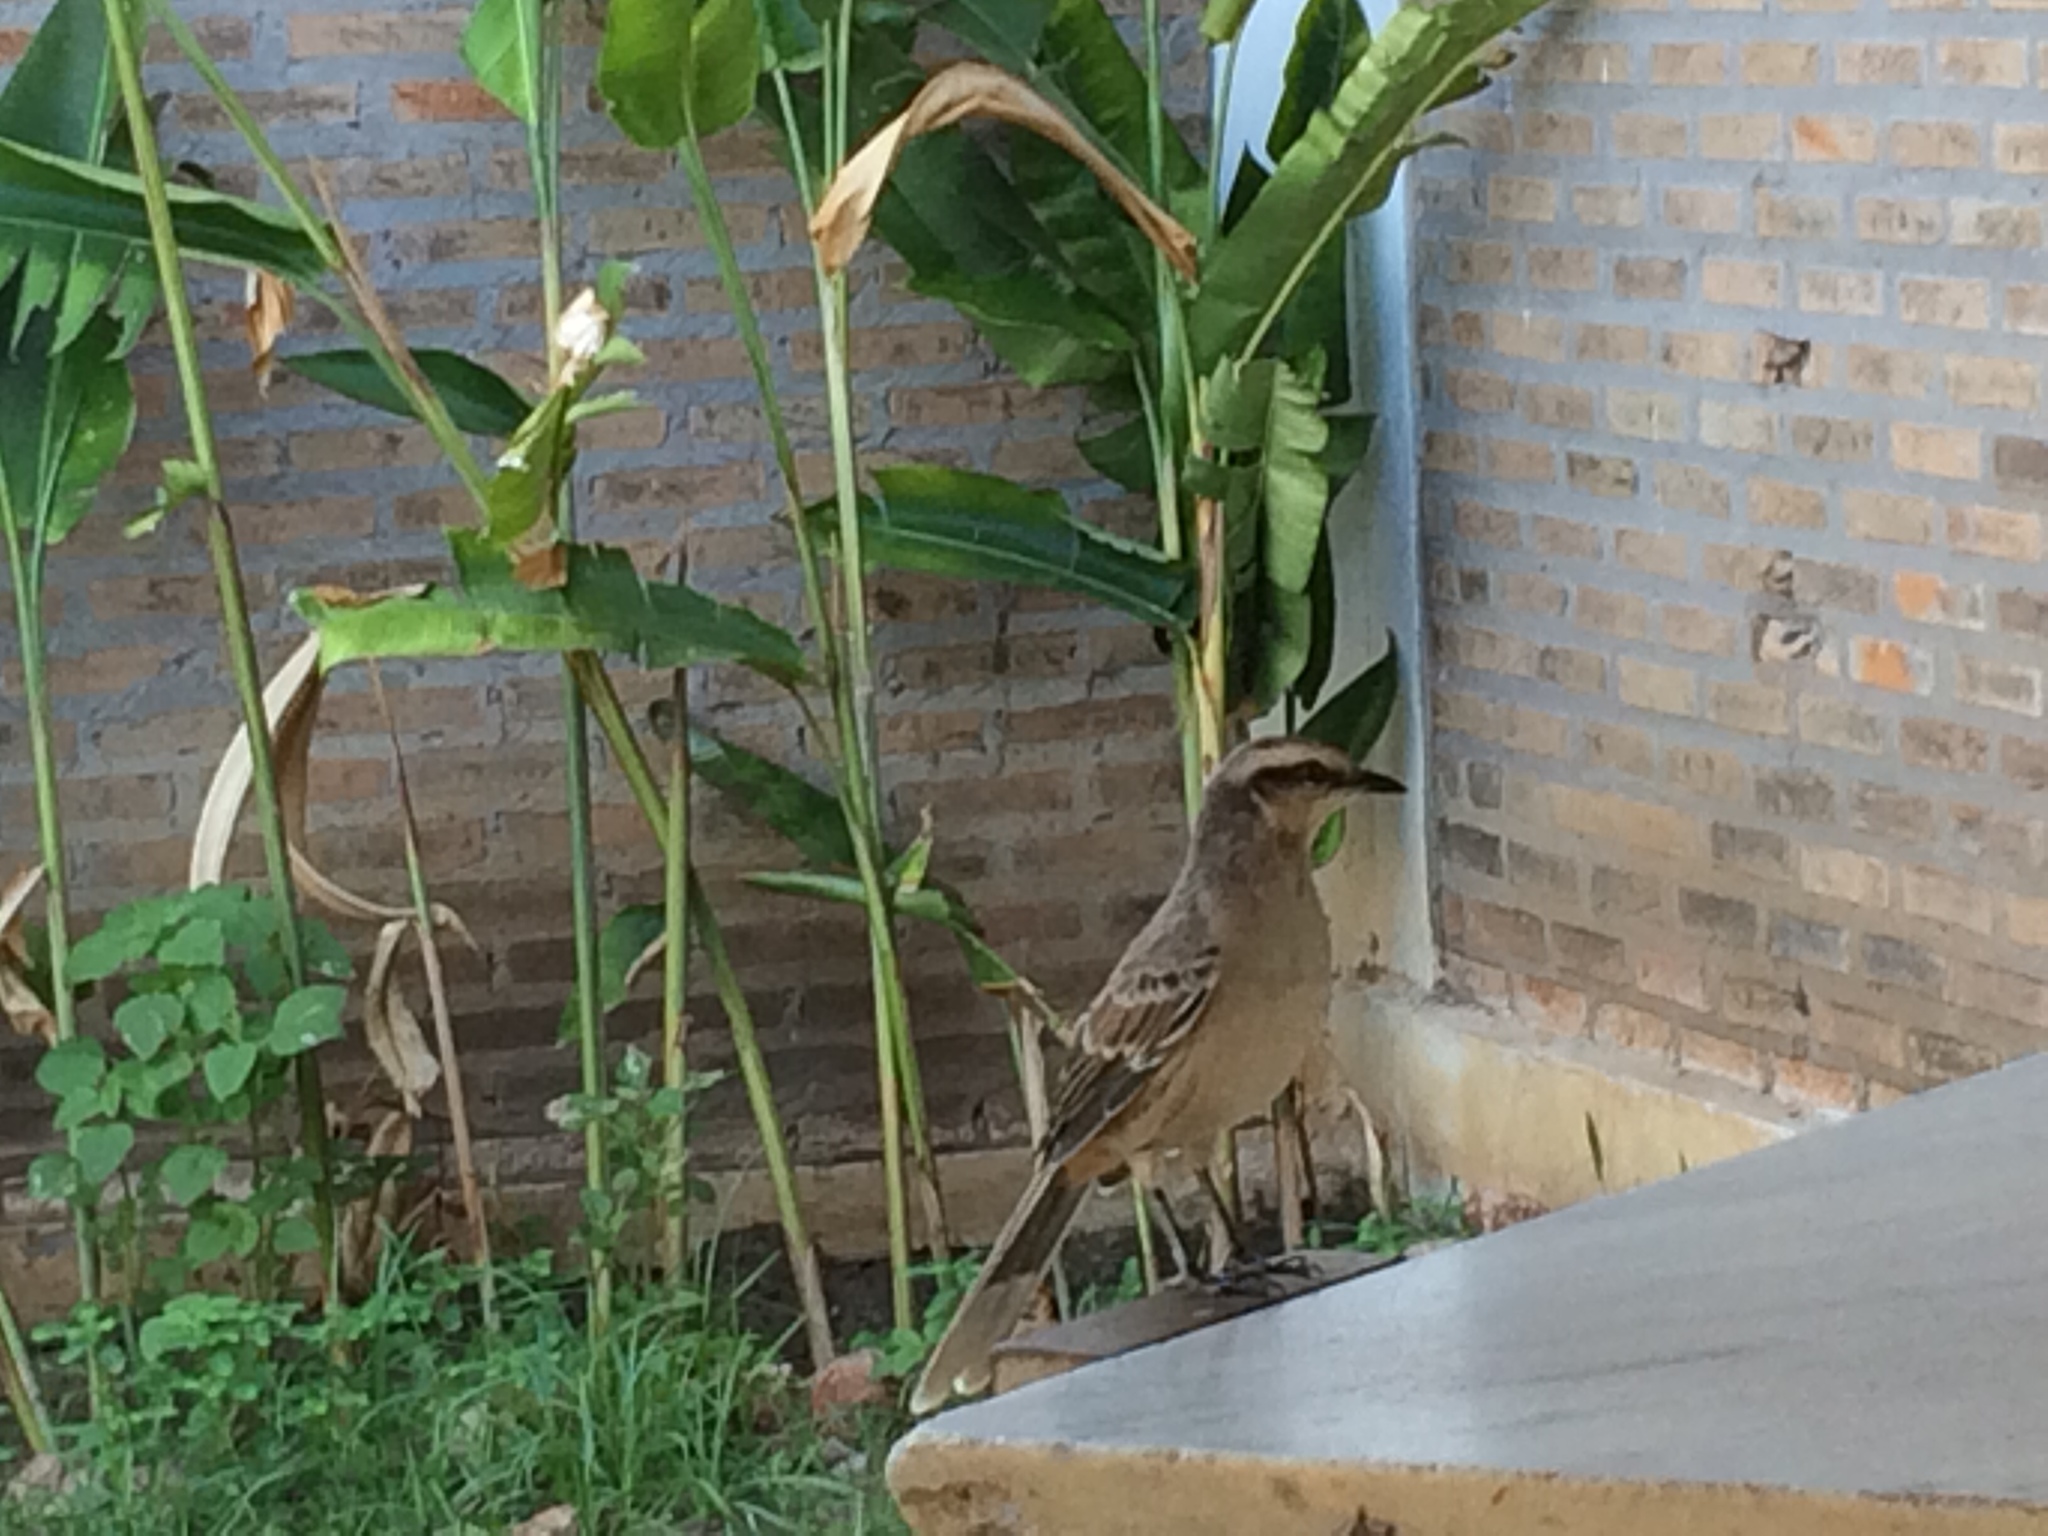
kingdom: Animalia
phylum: Chordata
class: Aves
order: Passeriformes
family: Mimidae
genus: Mimus
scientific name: Mimus saturninus
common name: Chalk-browed mockingbird
